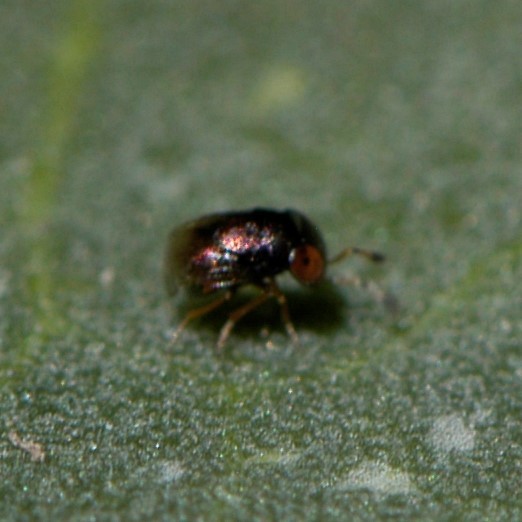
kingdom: Animalia
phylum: Arthropoda
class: Insecta
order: Hymenoptera
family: Encyrtidae
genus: Aenasius
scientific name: Aenasius
